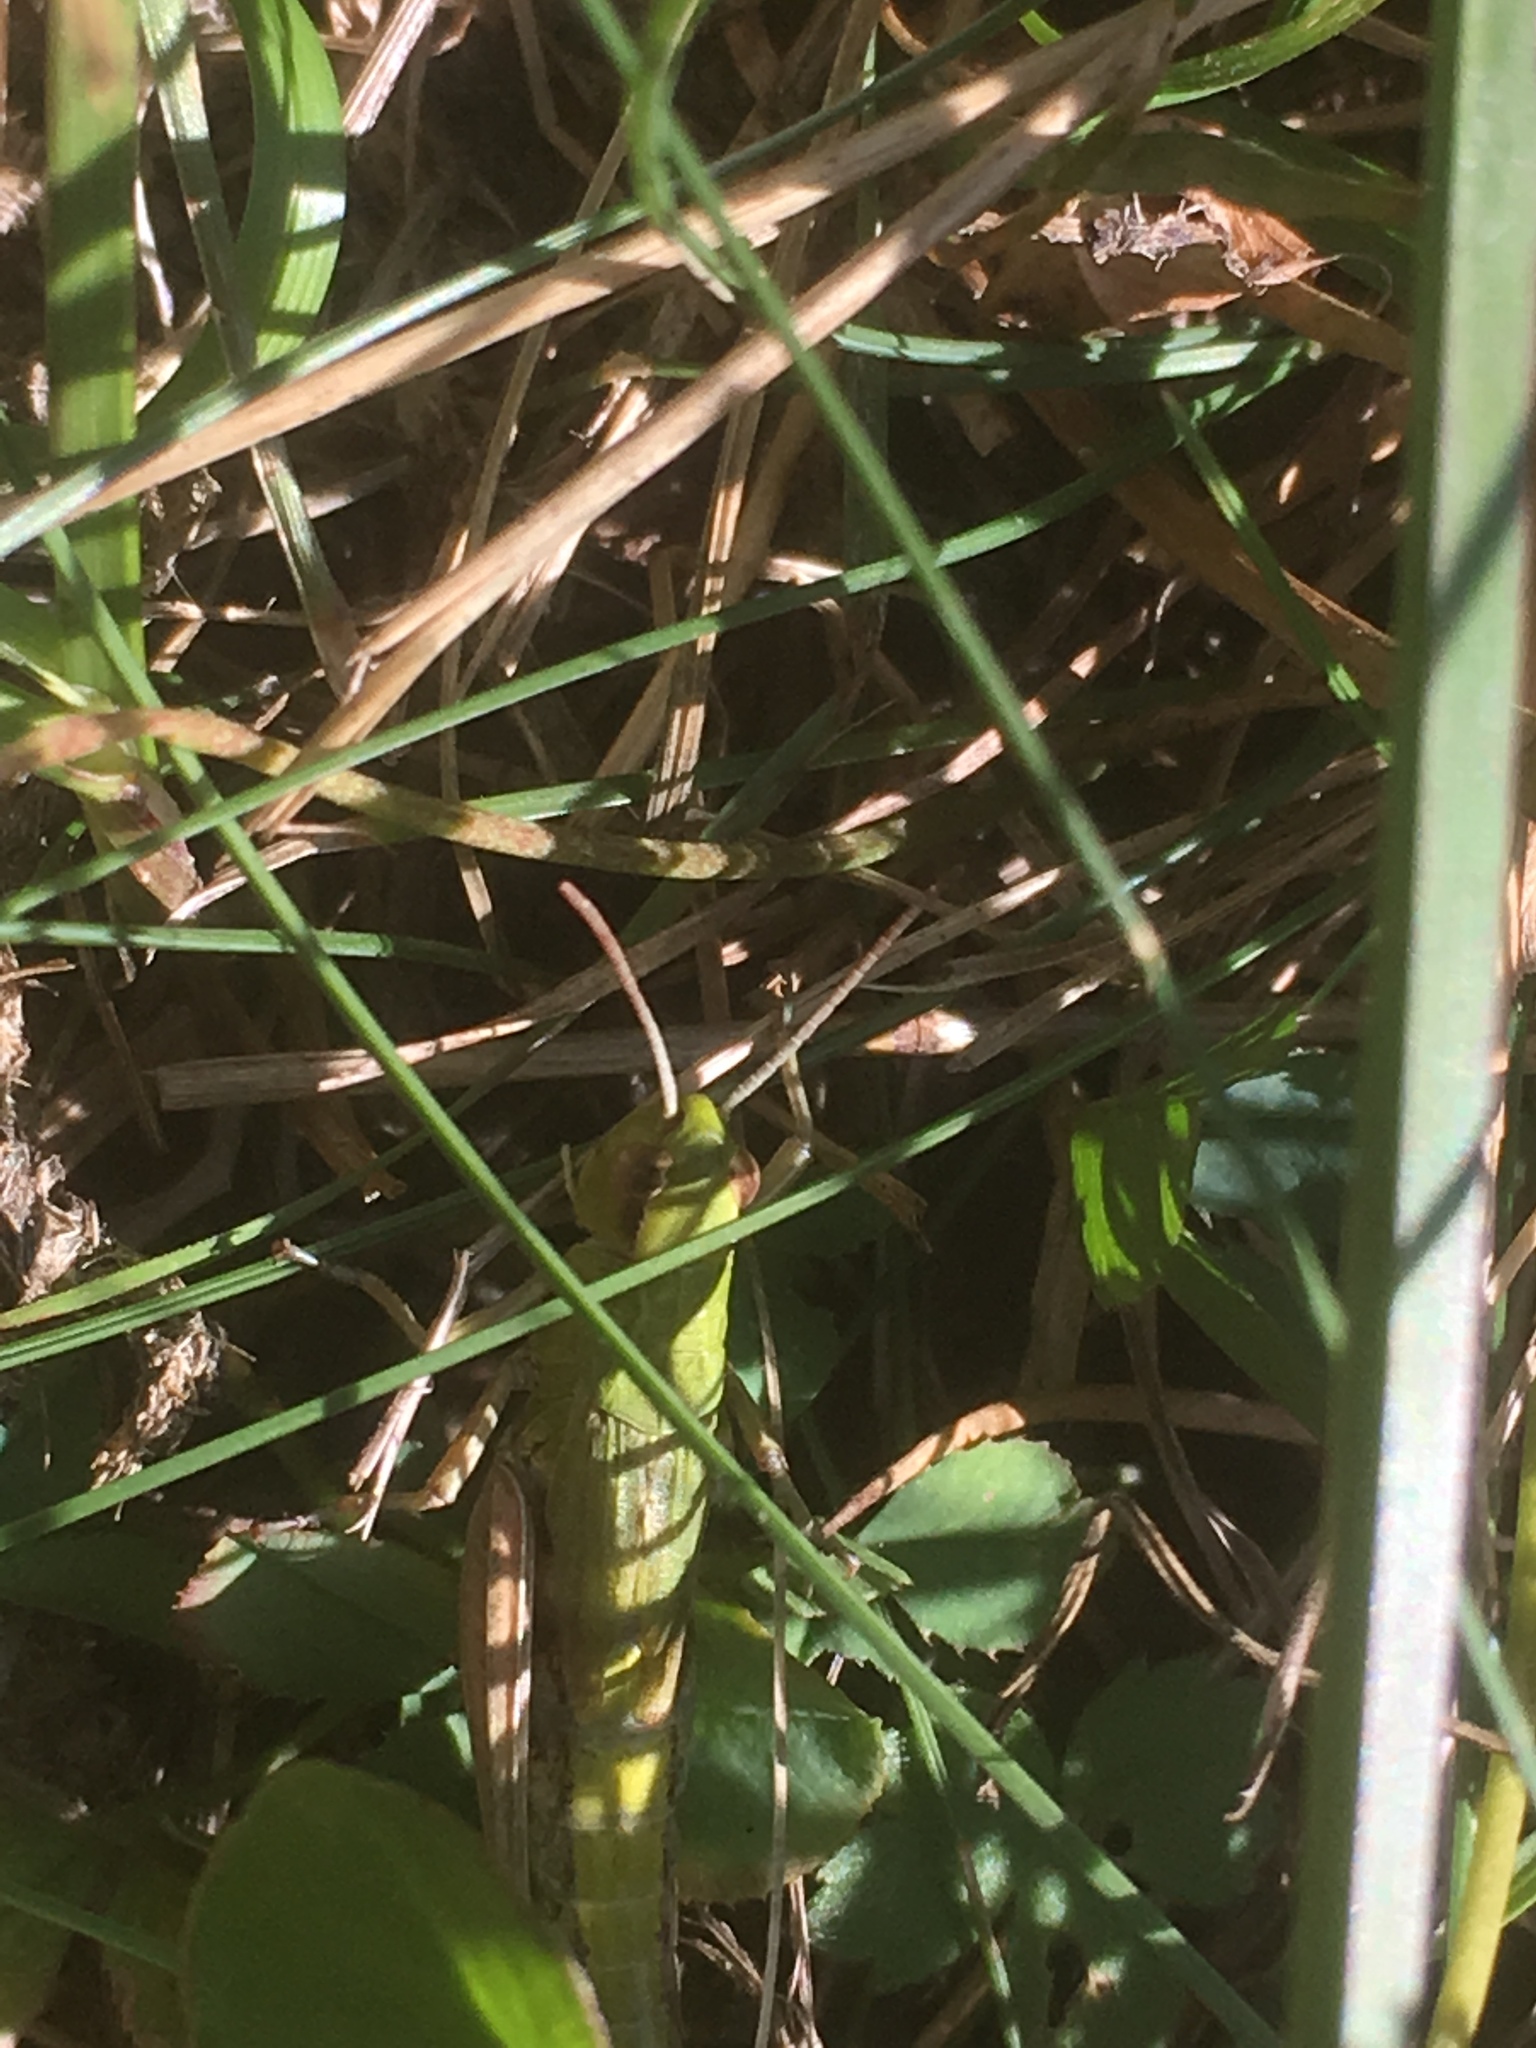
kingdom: Animalia
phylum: Arthropoda
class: Insecta
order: Orthoptera
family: Acrididae
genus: Pseudochorthippus
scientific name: Pseudochorthippus parallelus
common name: Meadow grasshopper
